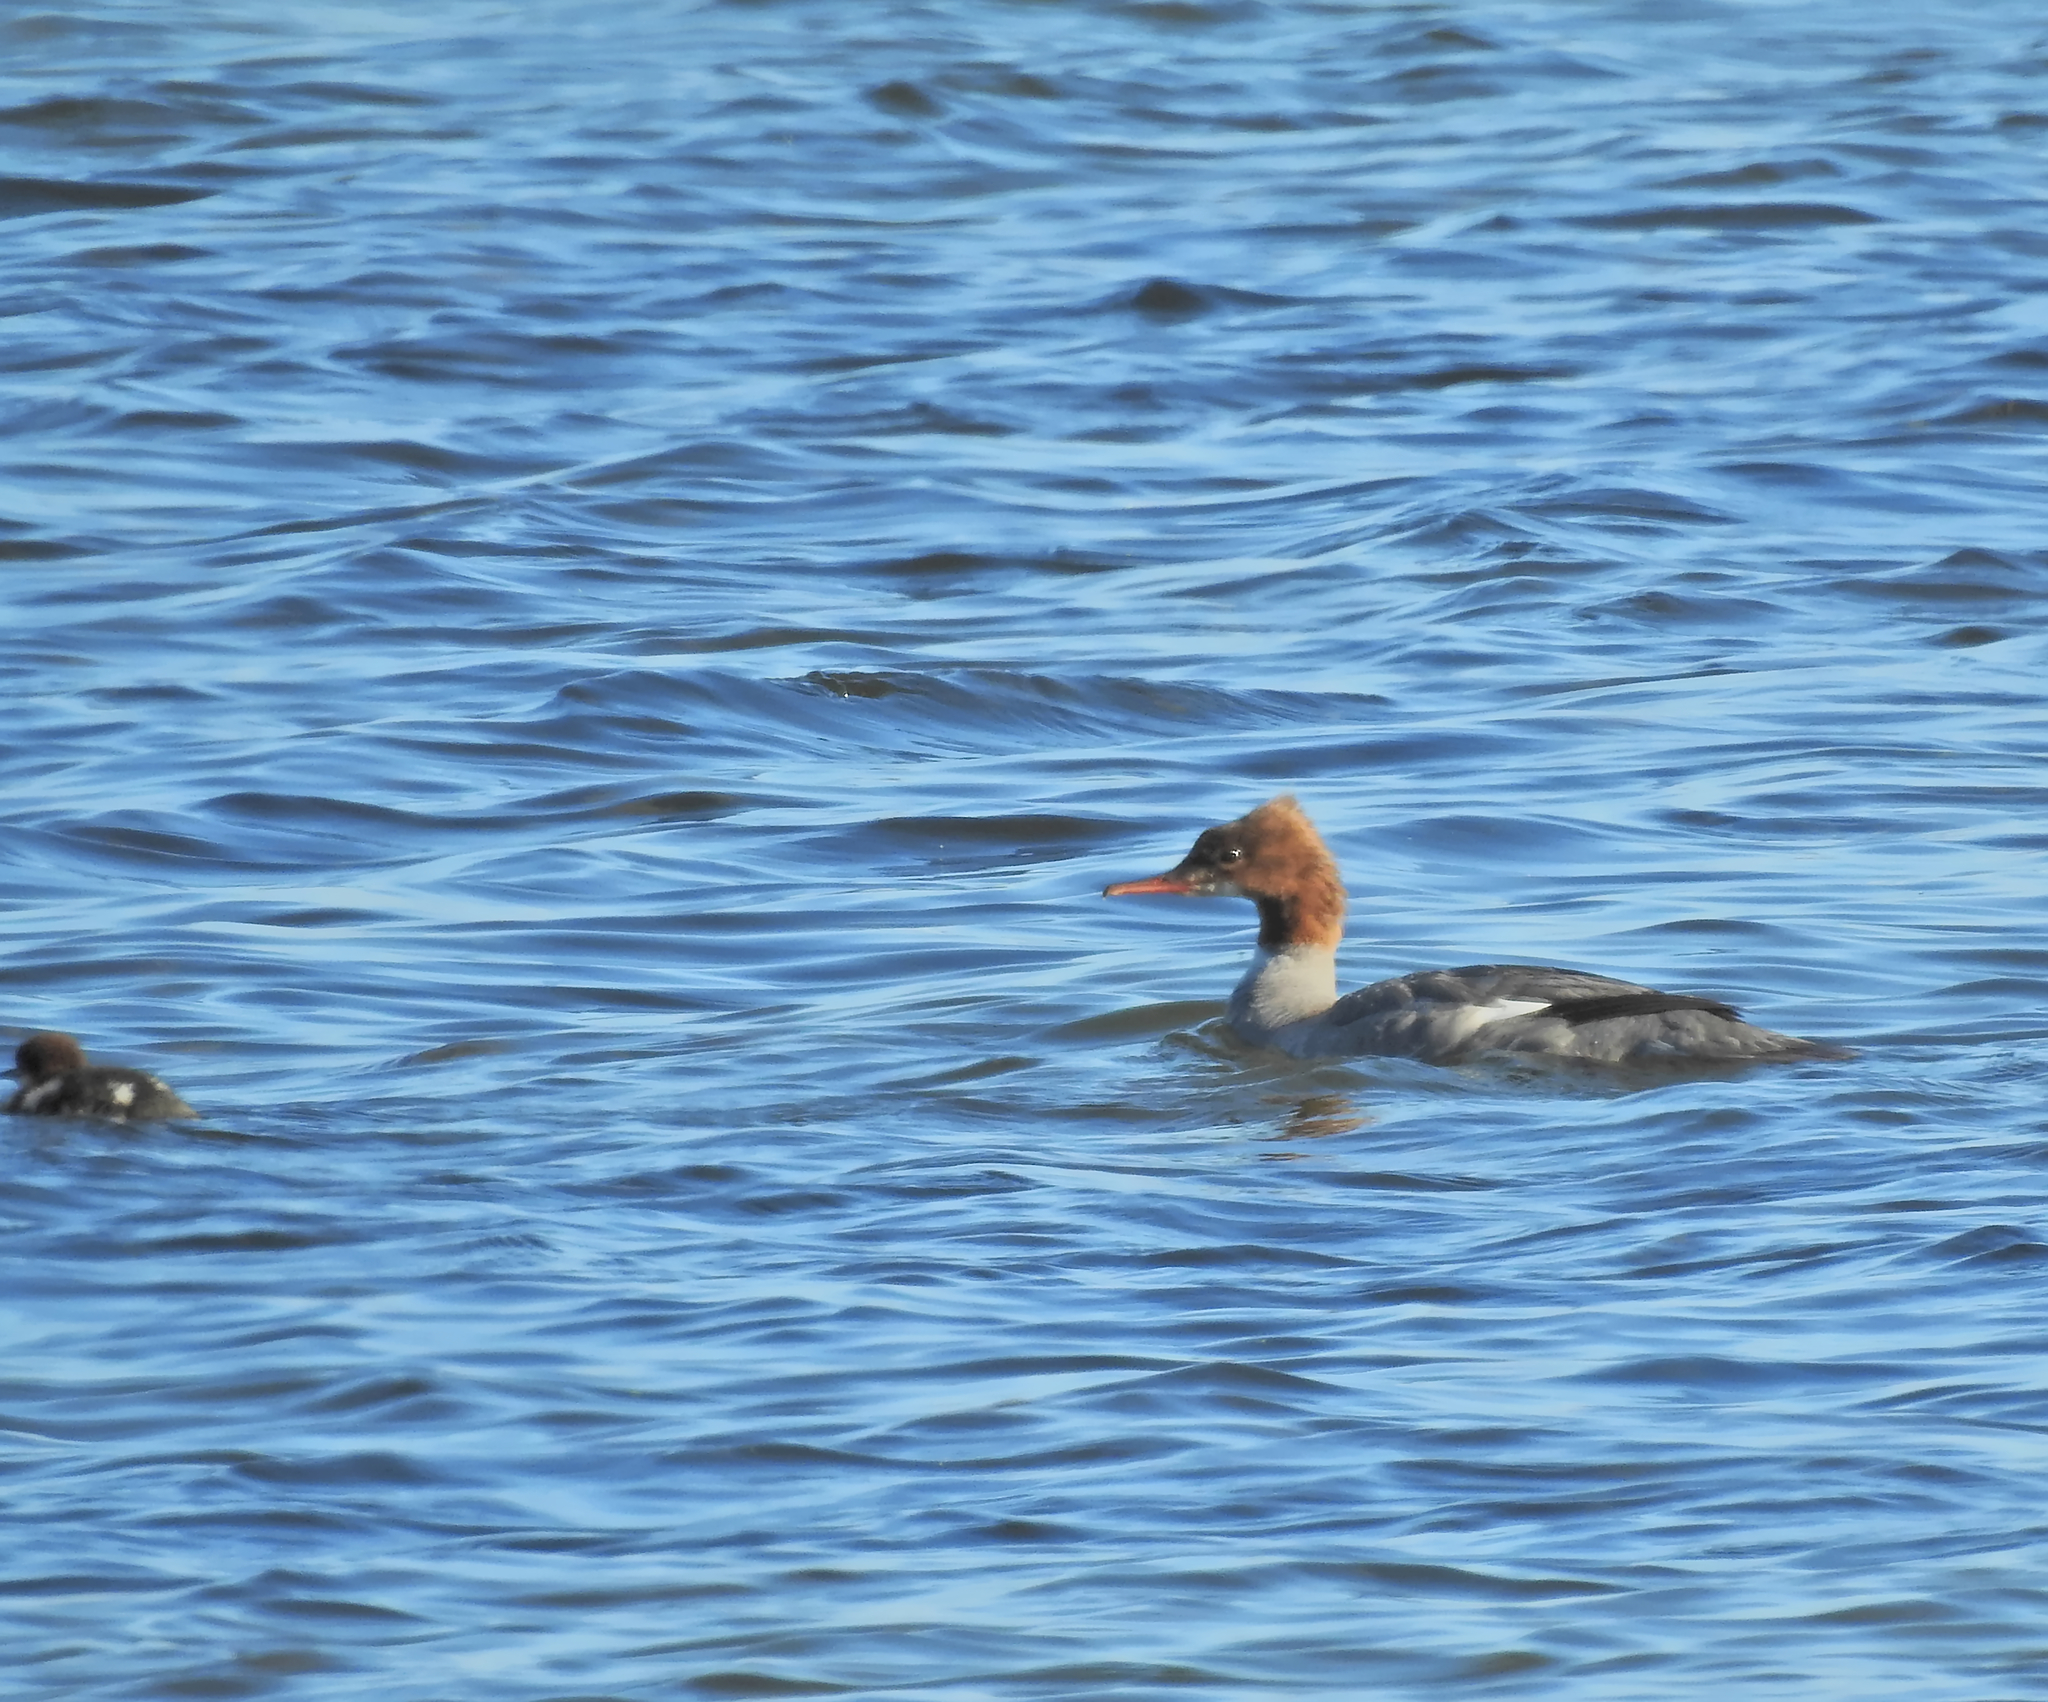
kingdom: Animalia
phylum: Chordata
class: Aves
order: Anseriformes
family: Anatidae
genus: Mergus
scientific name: Mergus merganser
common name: Common merganser
